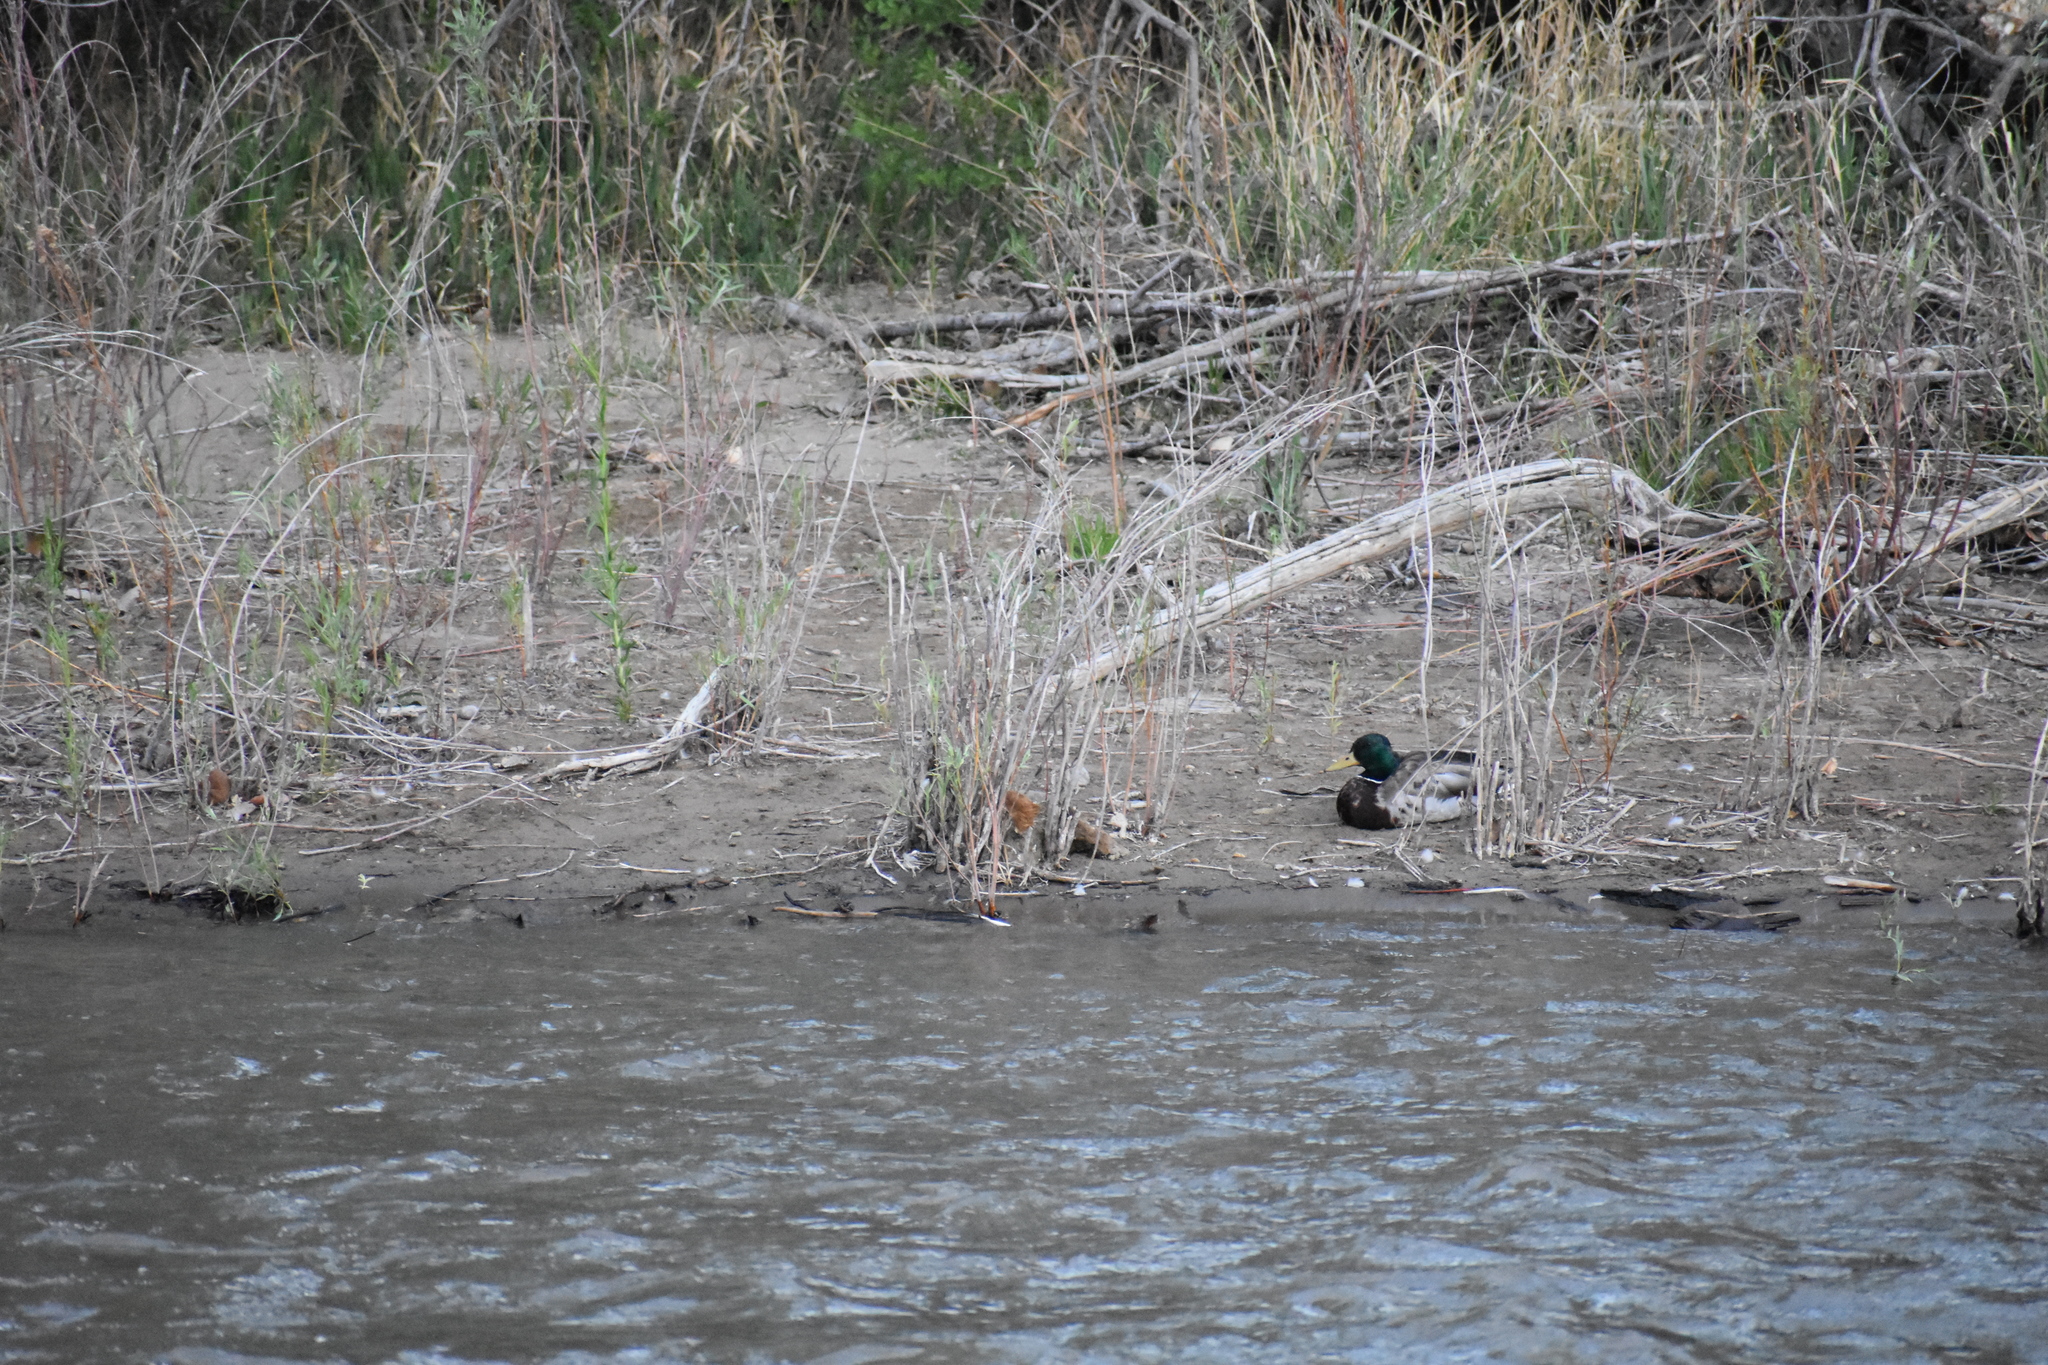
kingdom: Animalia
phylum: Chordata
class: Aves
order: Anseriformes
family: Anatidae
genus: Anas
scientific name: Anas platyrhynchos
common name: Mallard
